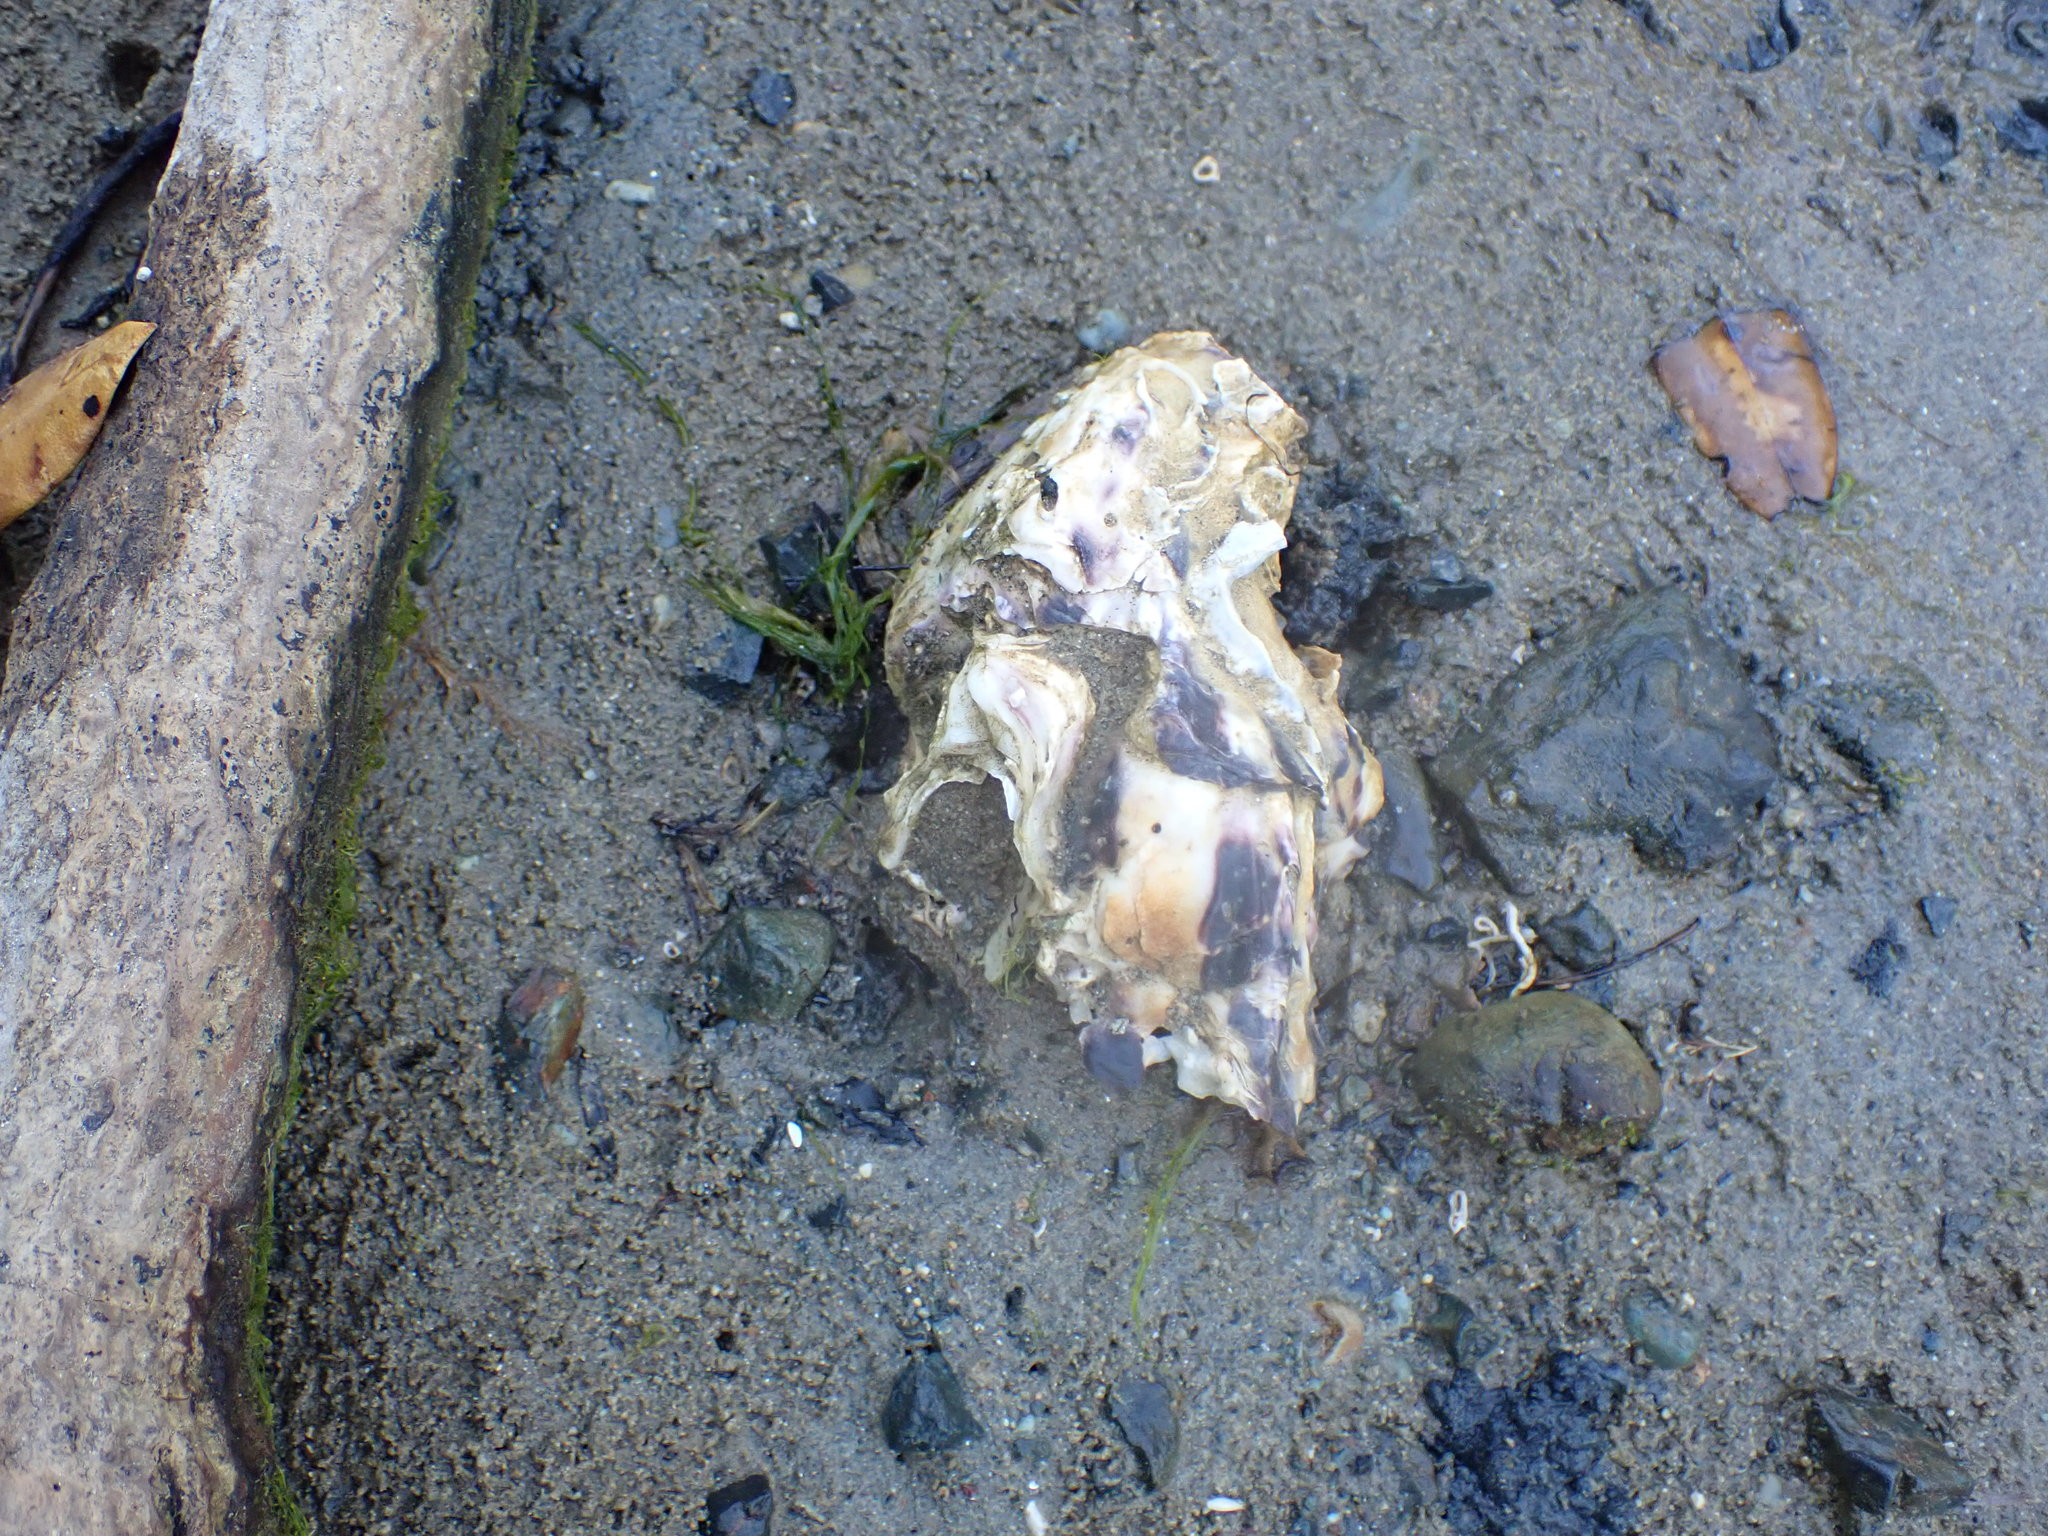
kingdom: Animalia
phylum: Mollusca
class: Bivalvia
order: Ostreida
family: Ostreidae
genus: Magallana
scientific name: Magallana gigas
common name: Pacific oyster
